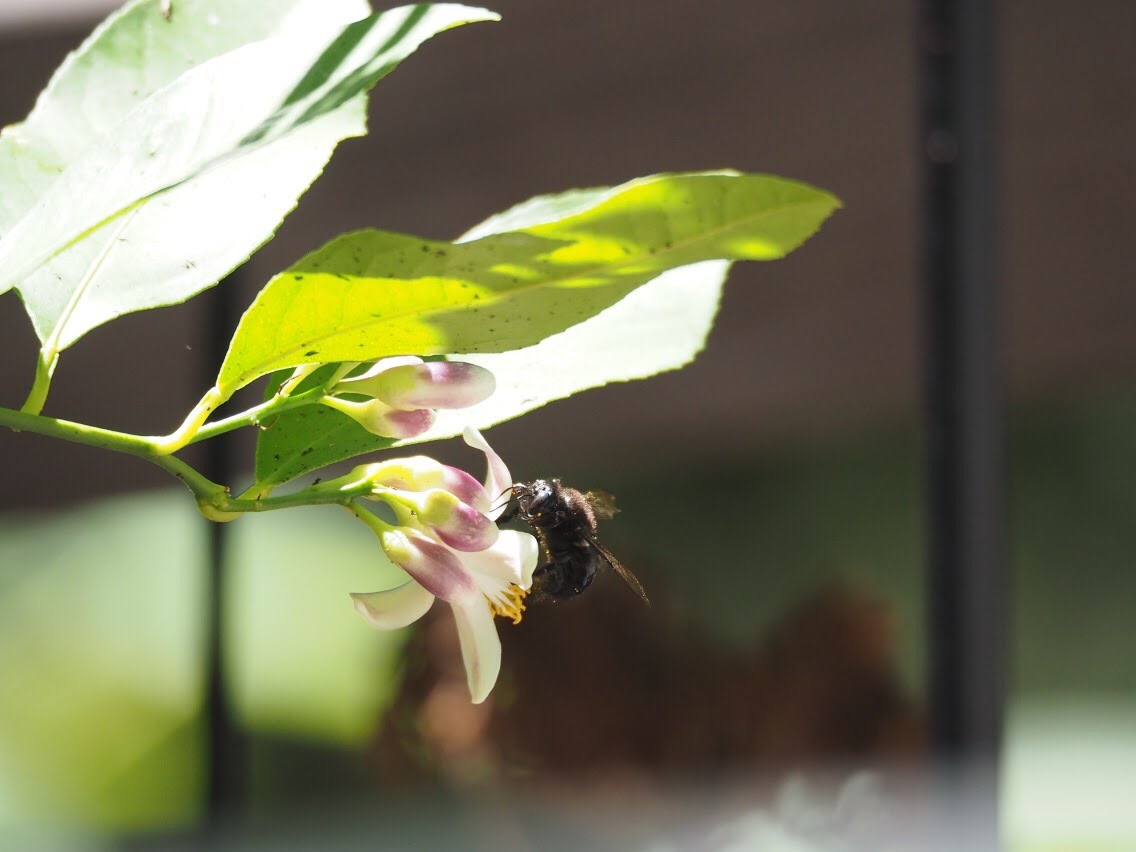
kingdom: Animalia
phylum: Arthropoda
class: Insecta
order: Hymenoptera
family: Apidae
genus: Xylocopa
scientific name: Xylocopa tabaniformis
